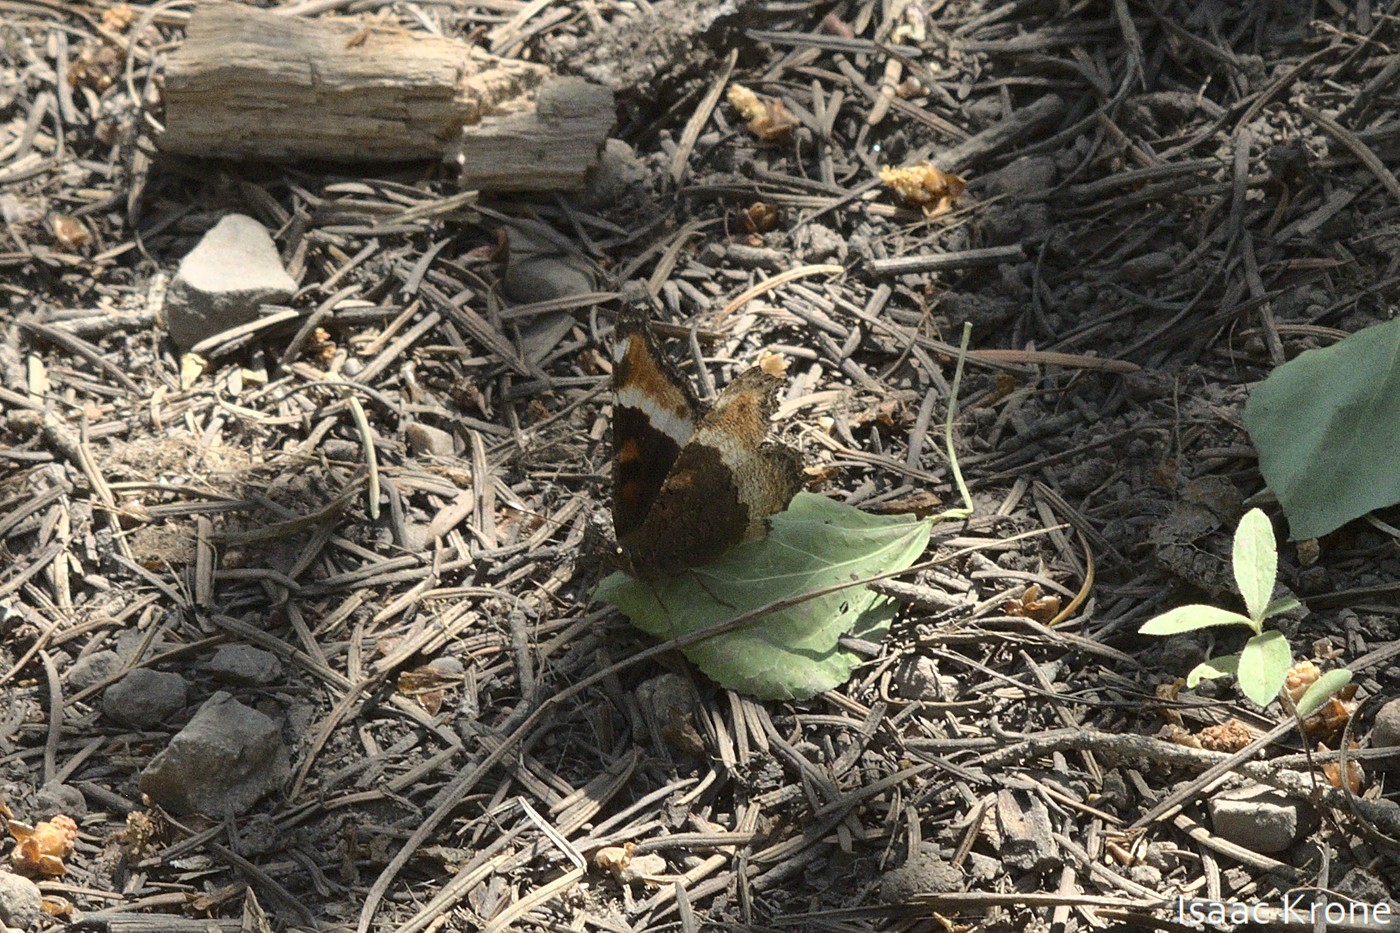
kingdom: Animalia
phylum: Arthropoda
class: Insecta
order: Lepidoptera
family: Nymphalidae
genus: Aglais
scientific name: Aglais milberti
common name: Milbert's tortoiseshell
